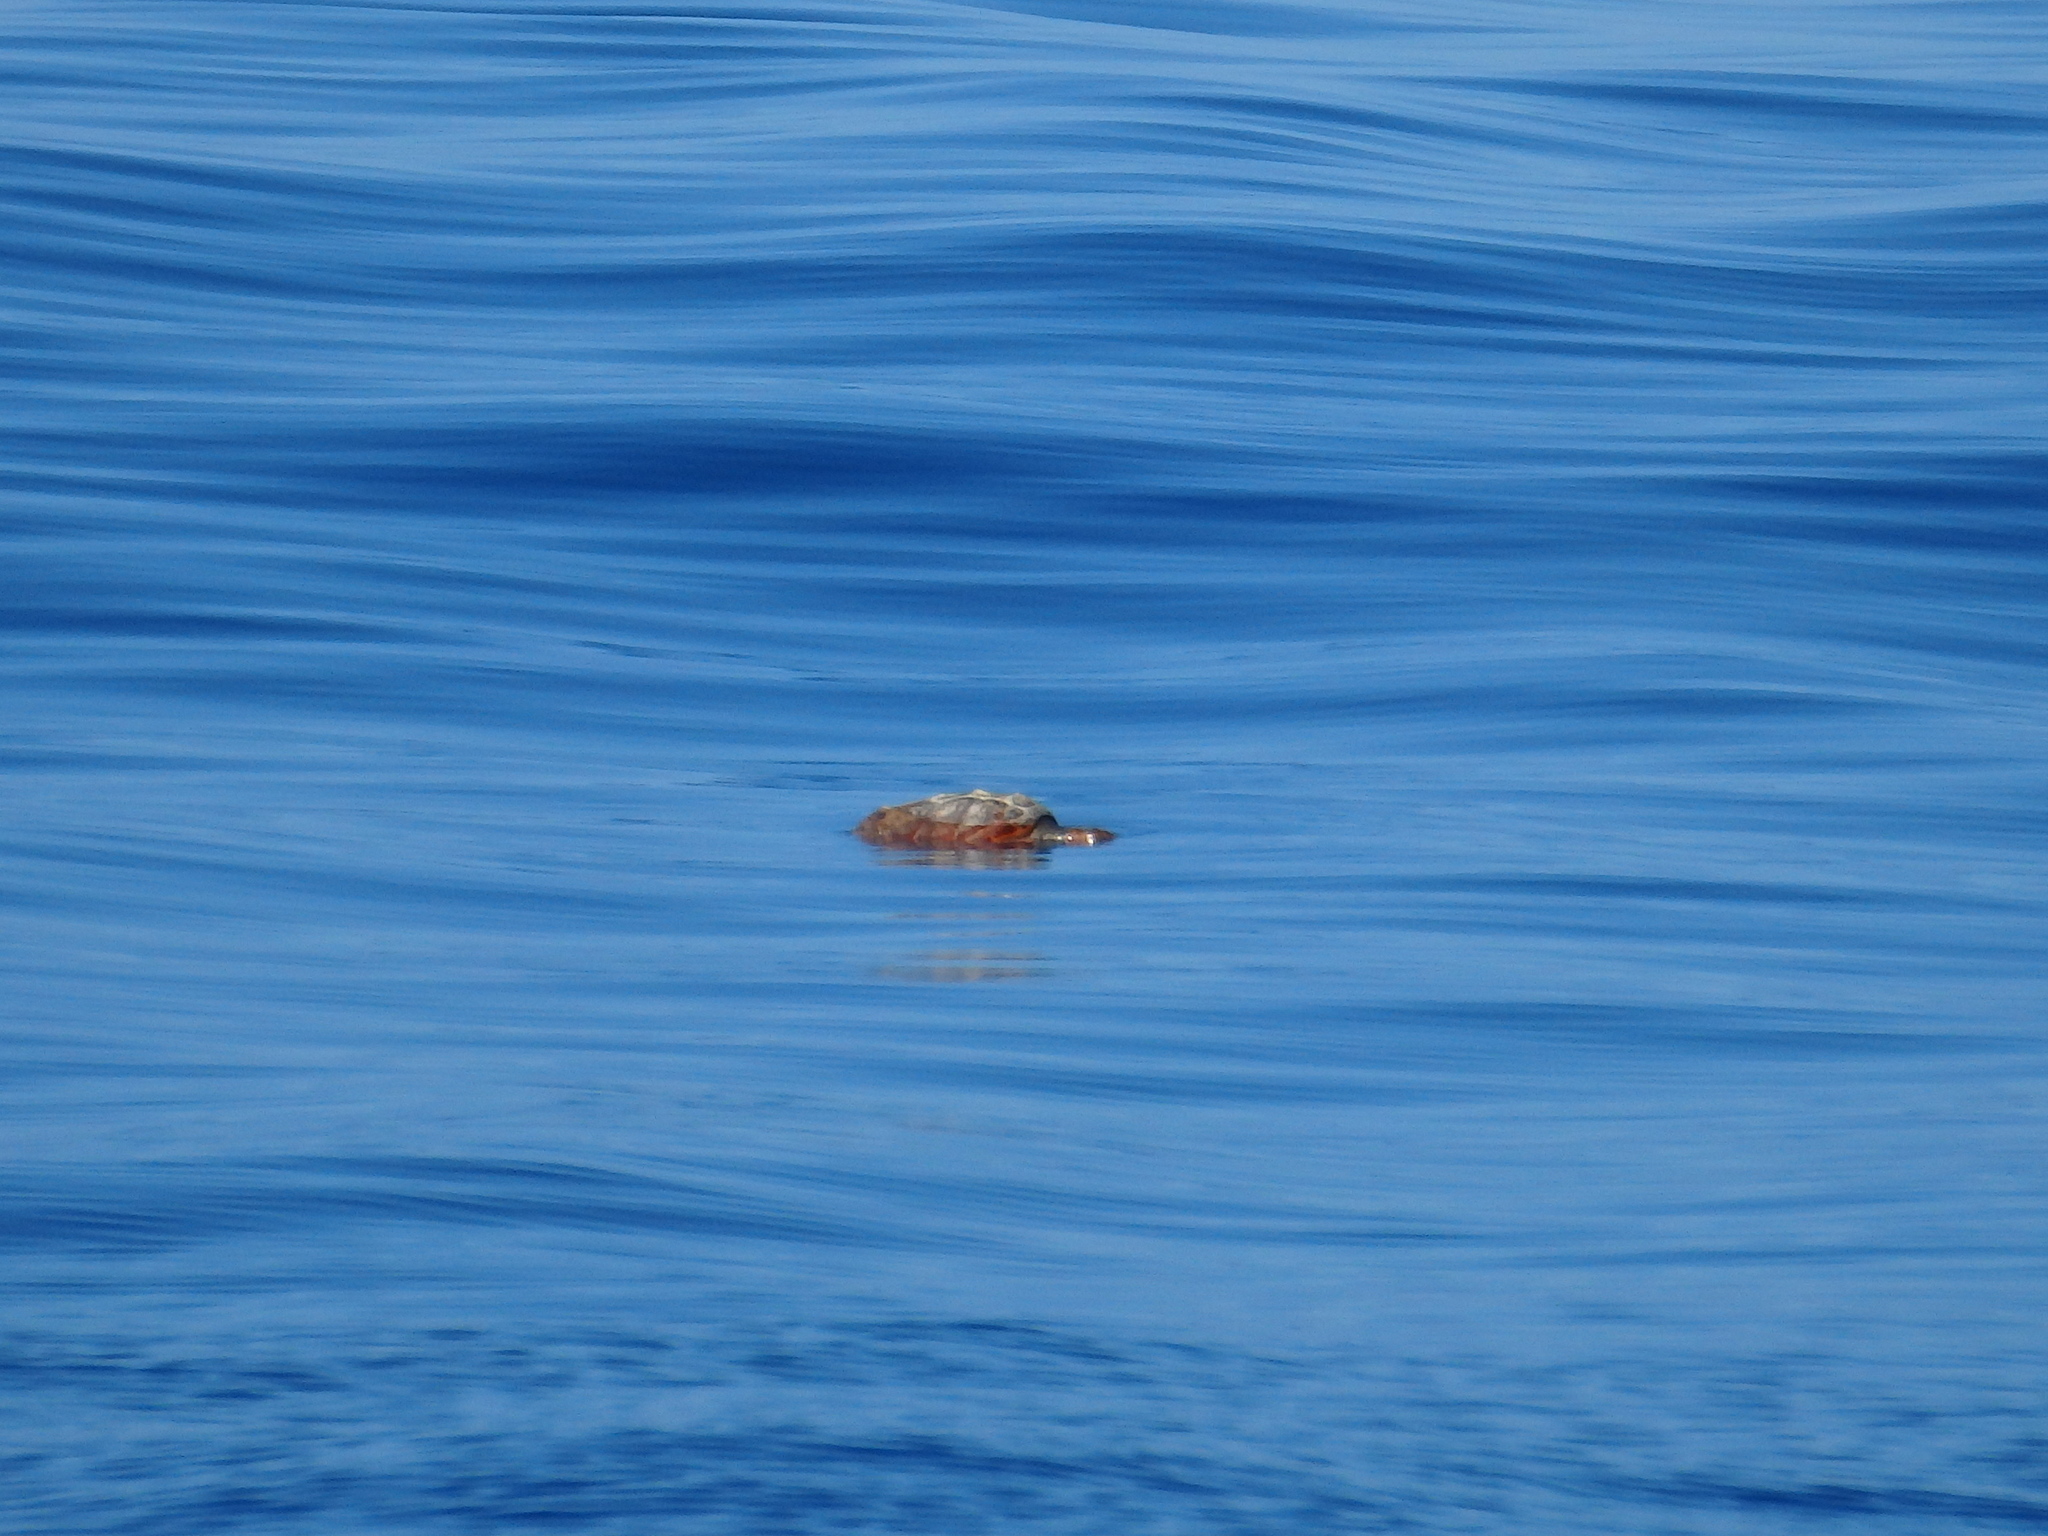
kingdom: Animalia
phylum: Chordata
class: Testudines
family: Cheloniidae
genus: Caretta
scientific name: Caretta caretta
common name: Loggerhead sea turtle
